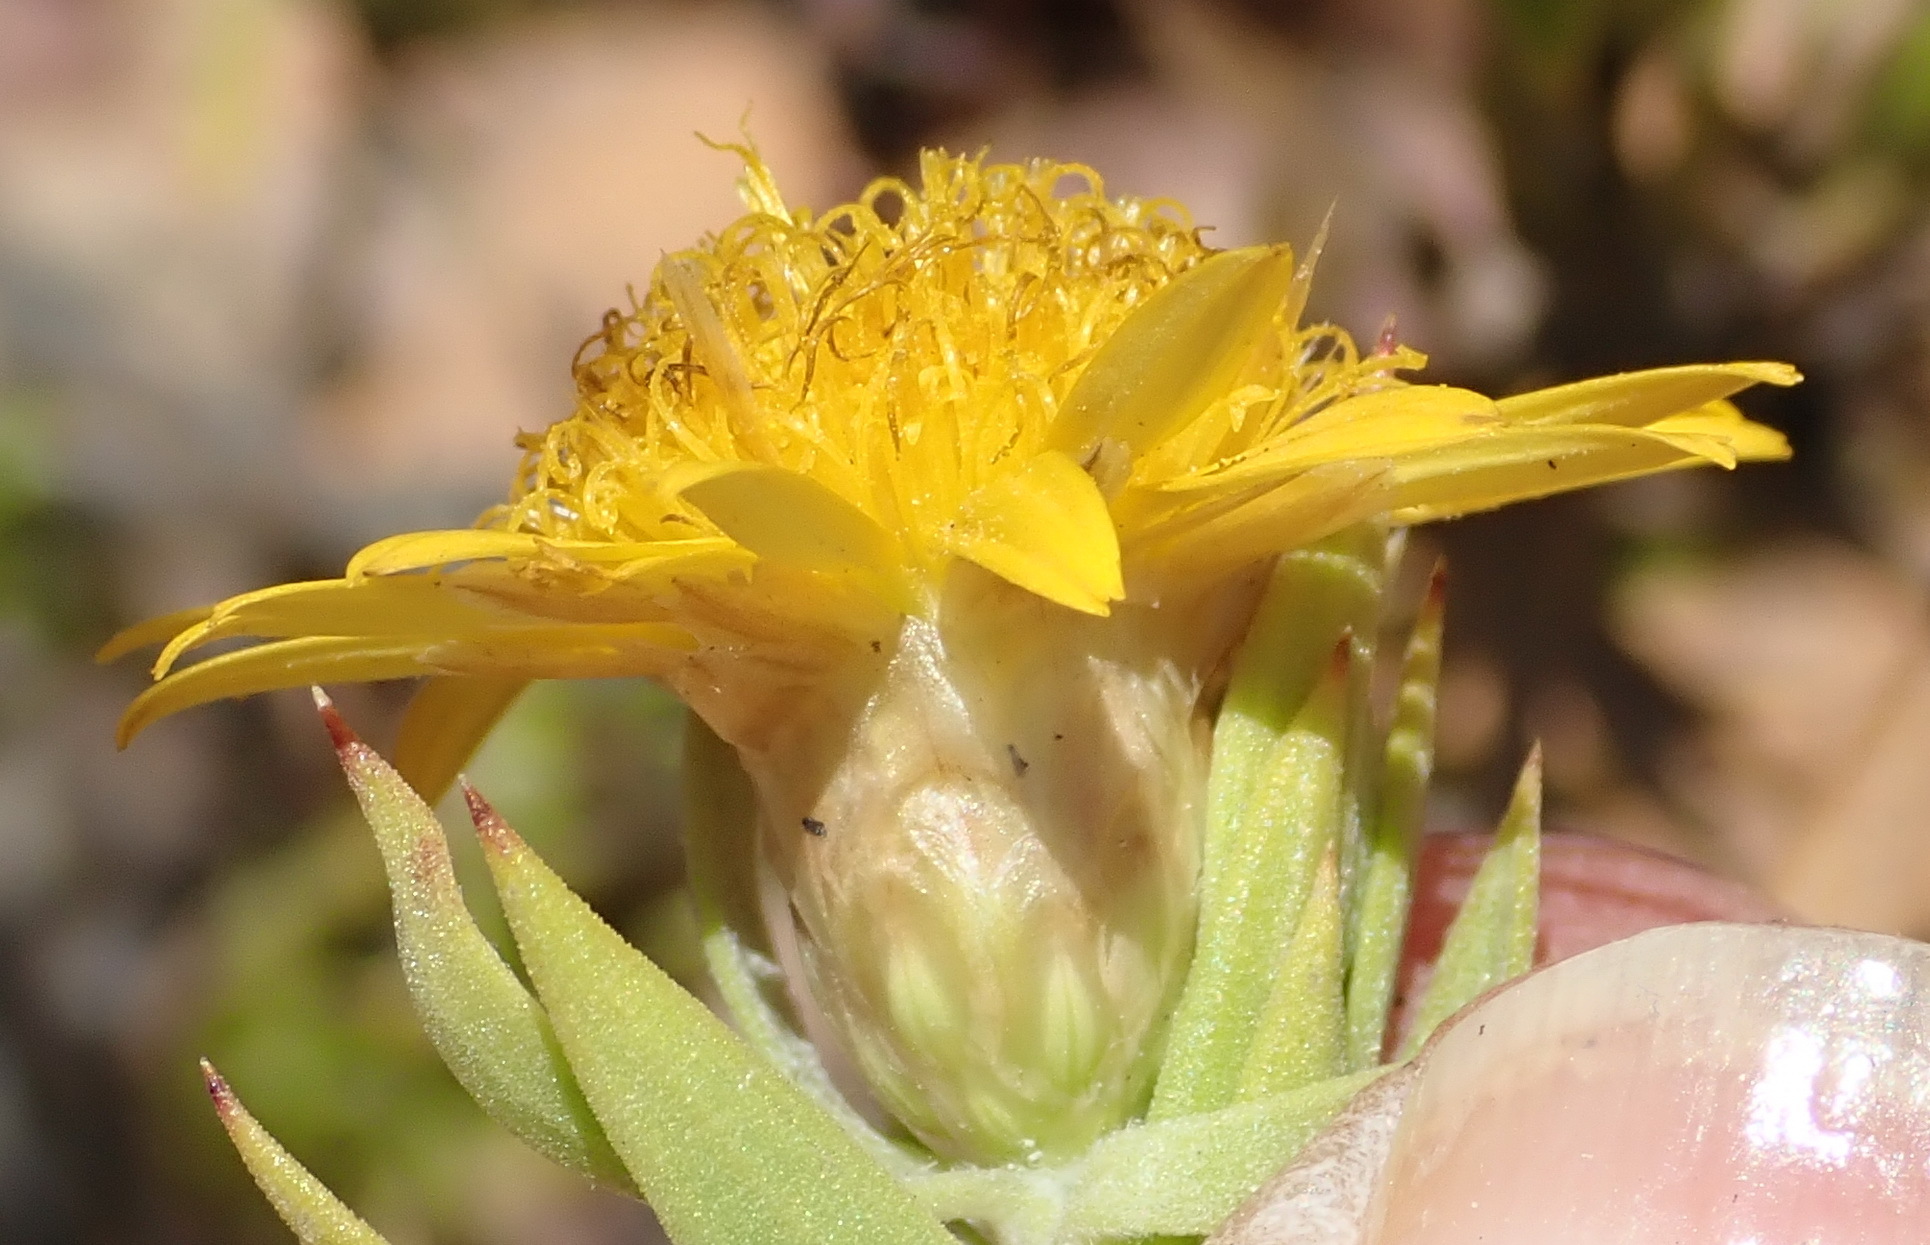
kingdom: Plantae
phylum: Tracheophyta
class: Magnoliopsida
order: Asterales
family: Asteraceae
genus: Oedera
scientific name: Oedera calycina
